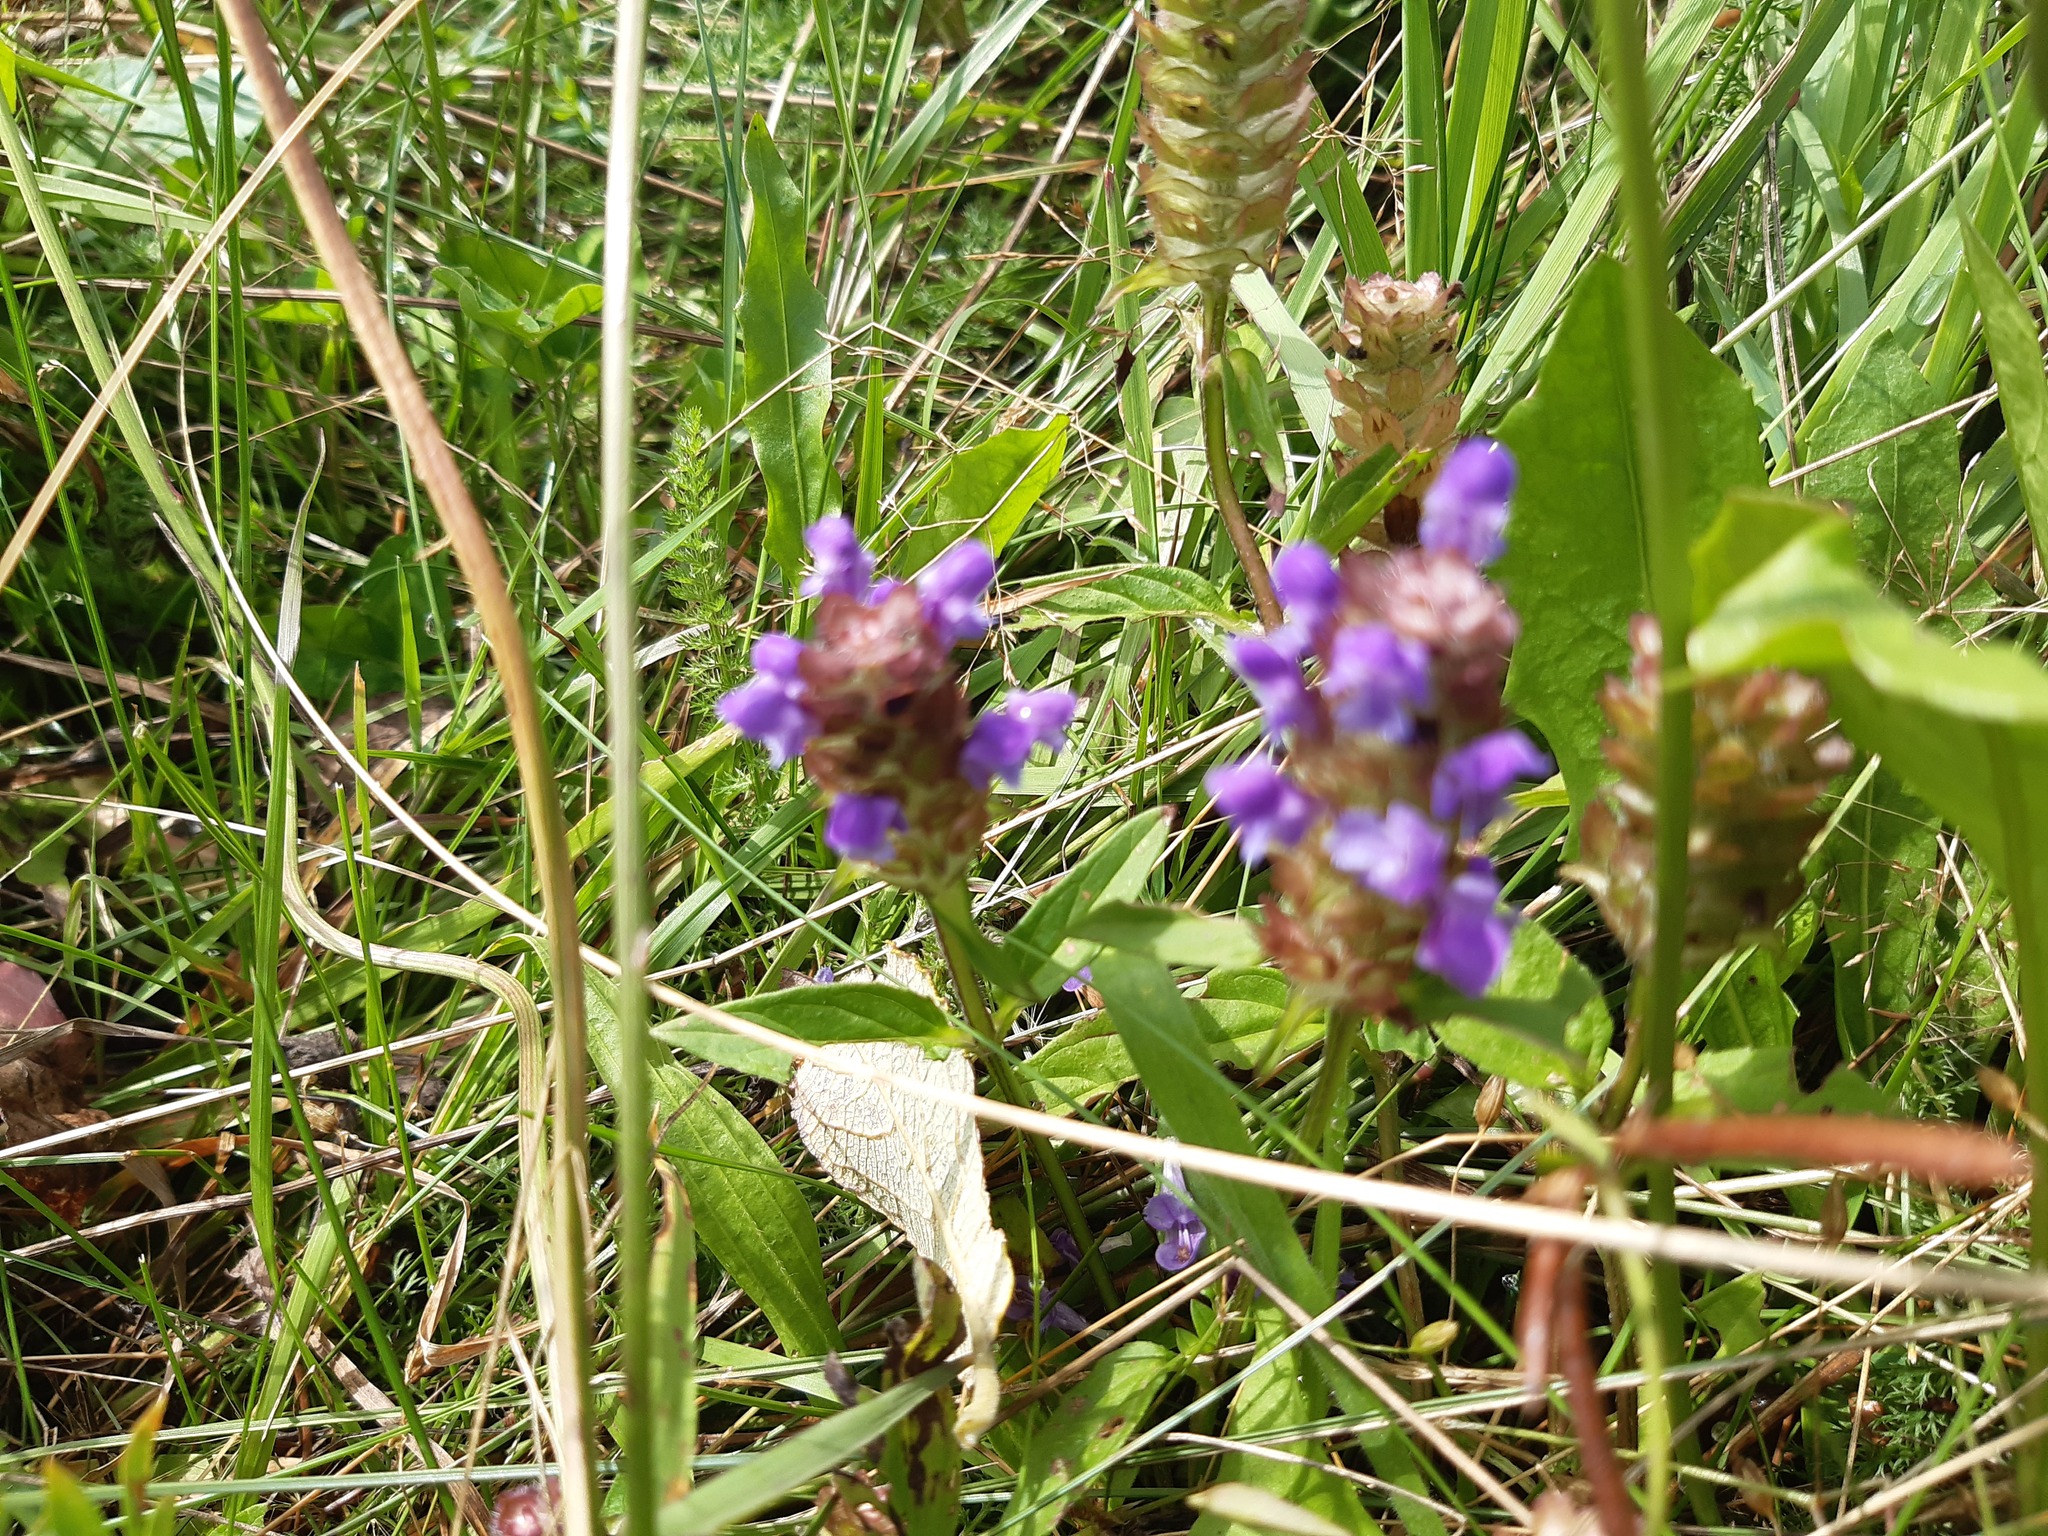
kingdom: Plantae
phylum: Tracheophyta
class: Magnoliopsida
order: Lamiales
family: Lamiaceae
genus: Prunella
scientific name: Prunella vulgaris
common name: Heal-all
